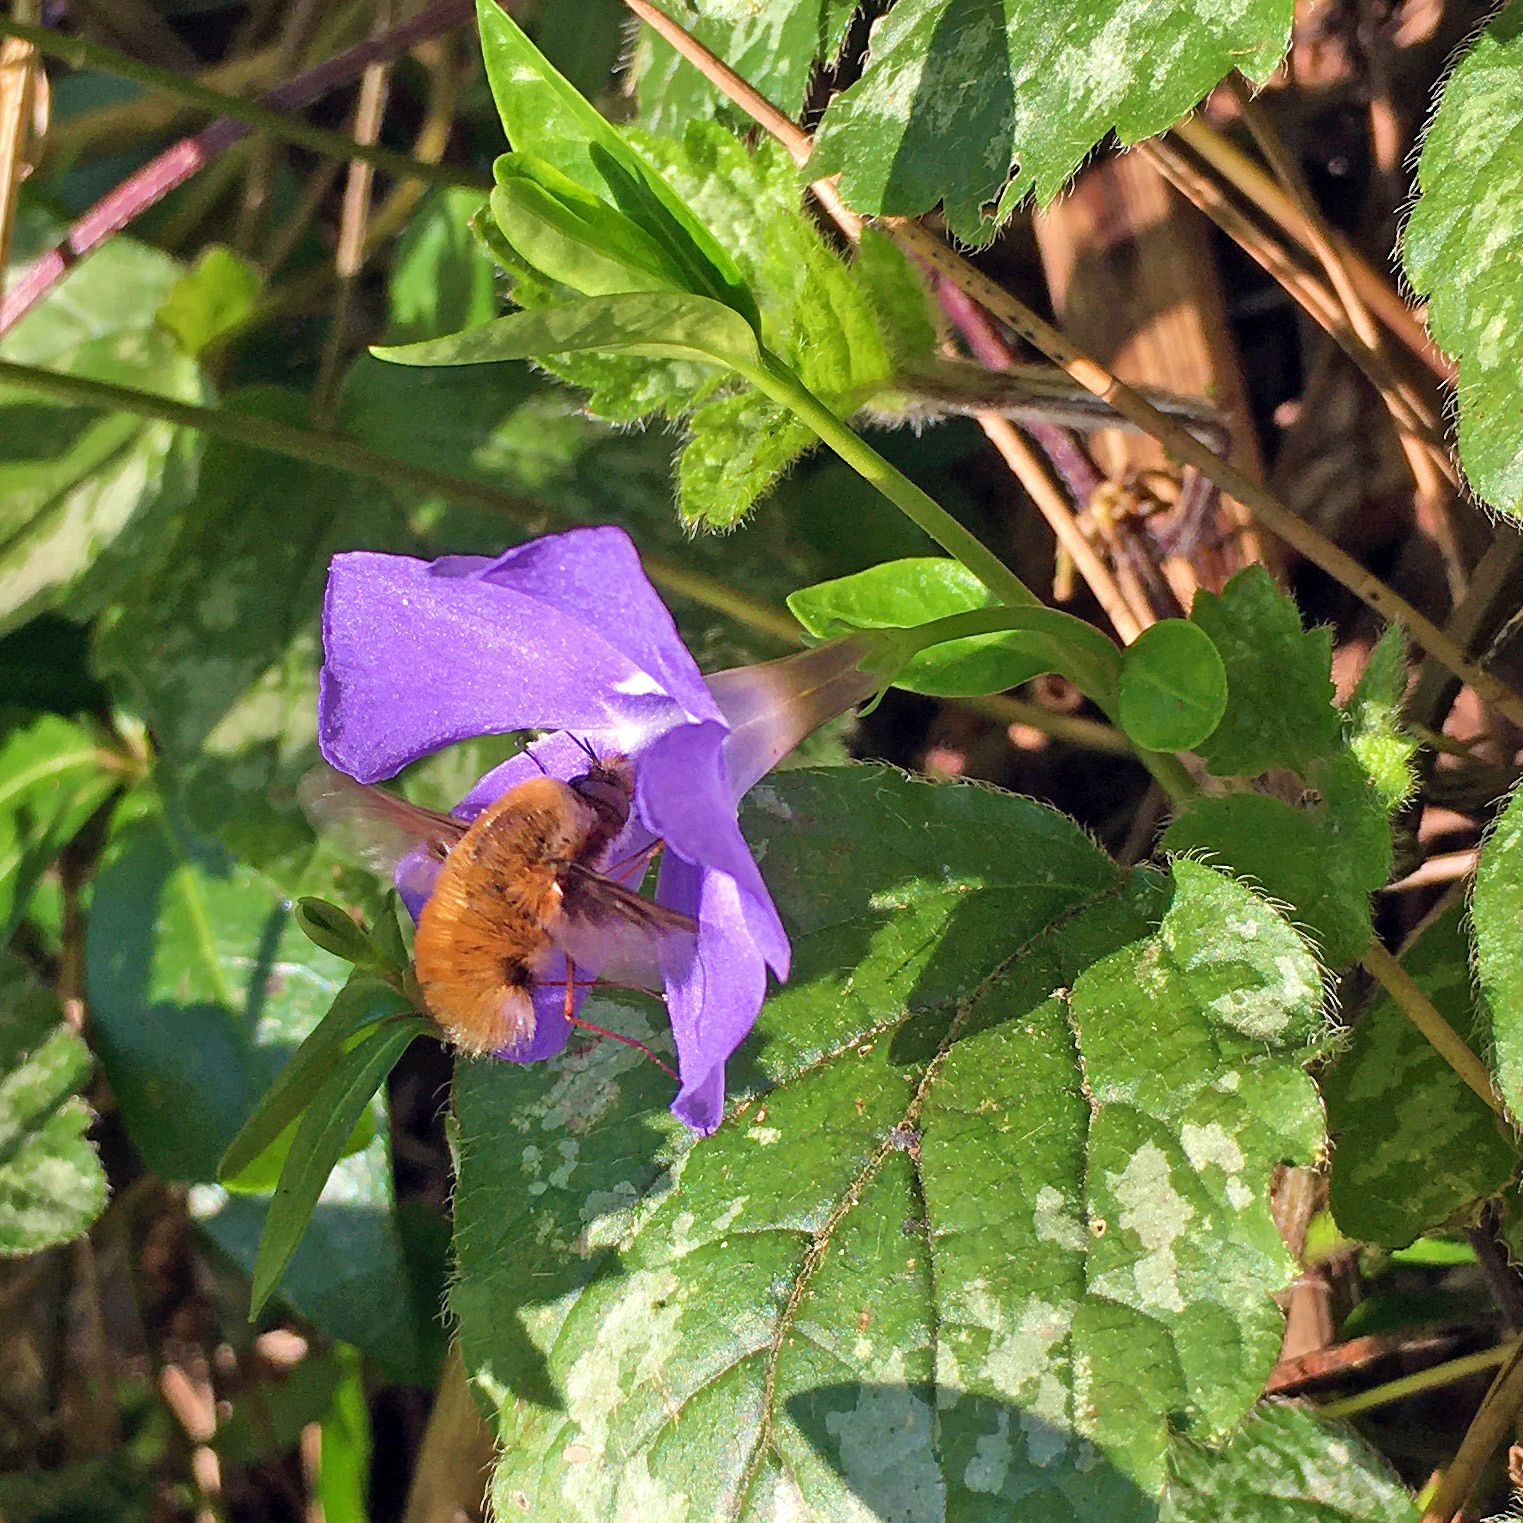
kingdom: Animalia
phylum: Arthropoda
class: Insecta
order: Diptera
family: Bombyliidae
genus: Bombylius
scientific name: Bombylius major
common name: Bee fly
